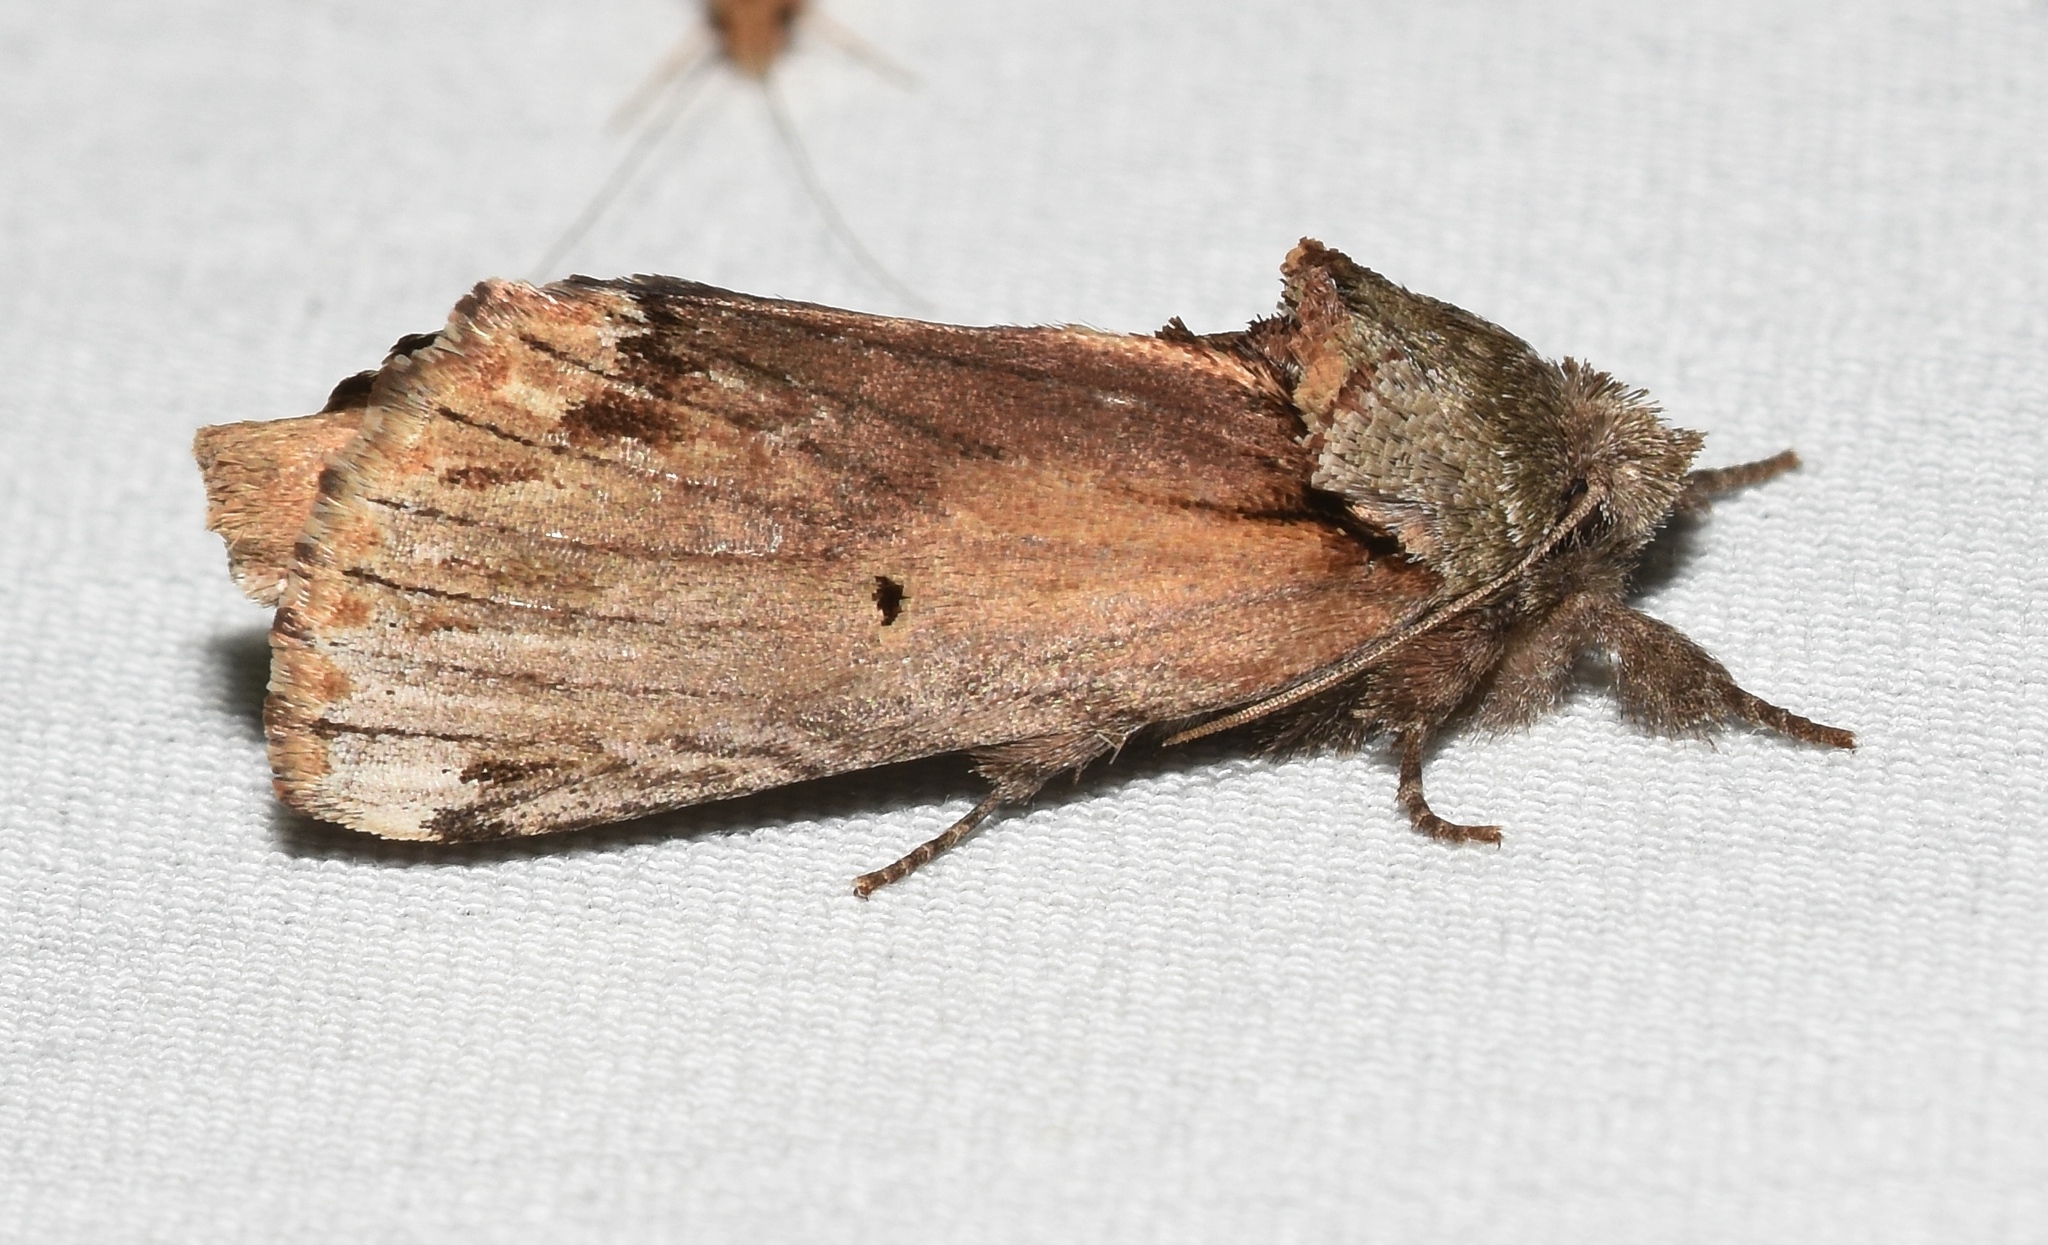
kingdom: Animalia
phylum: Arthropoda
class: Insecta
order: Lepidoptera
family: Notodontidae
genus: Schizura
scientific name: Schizura
